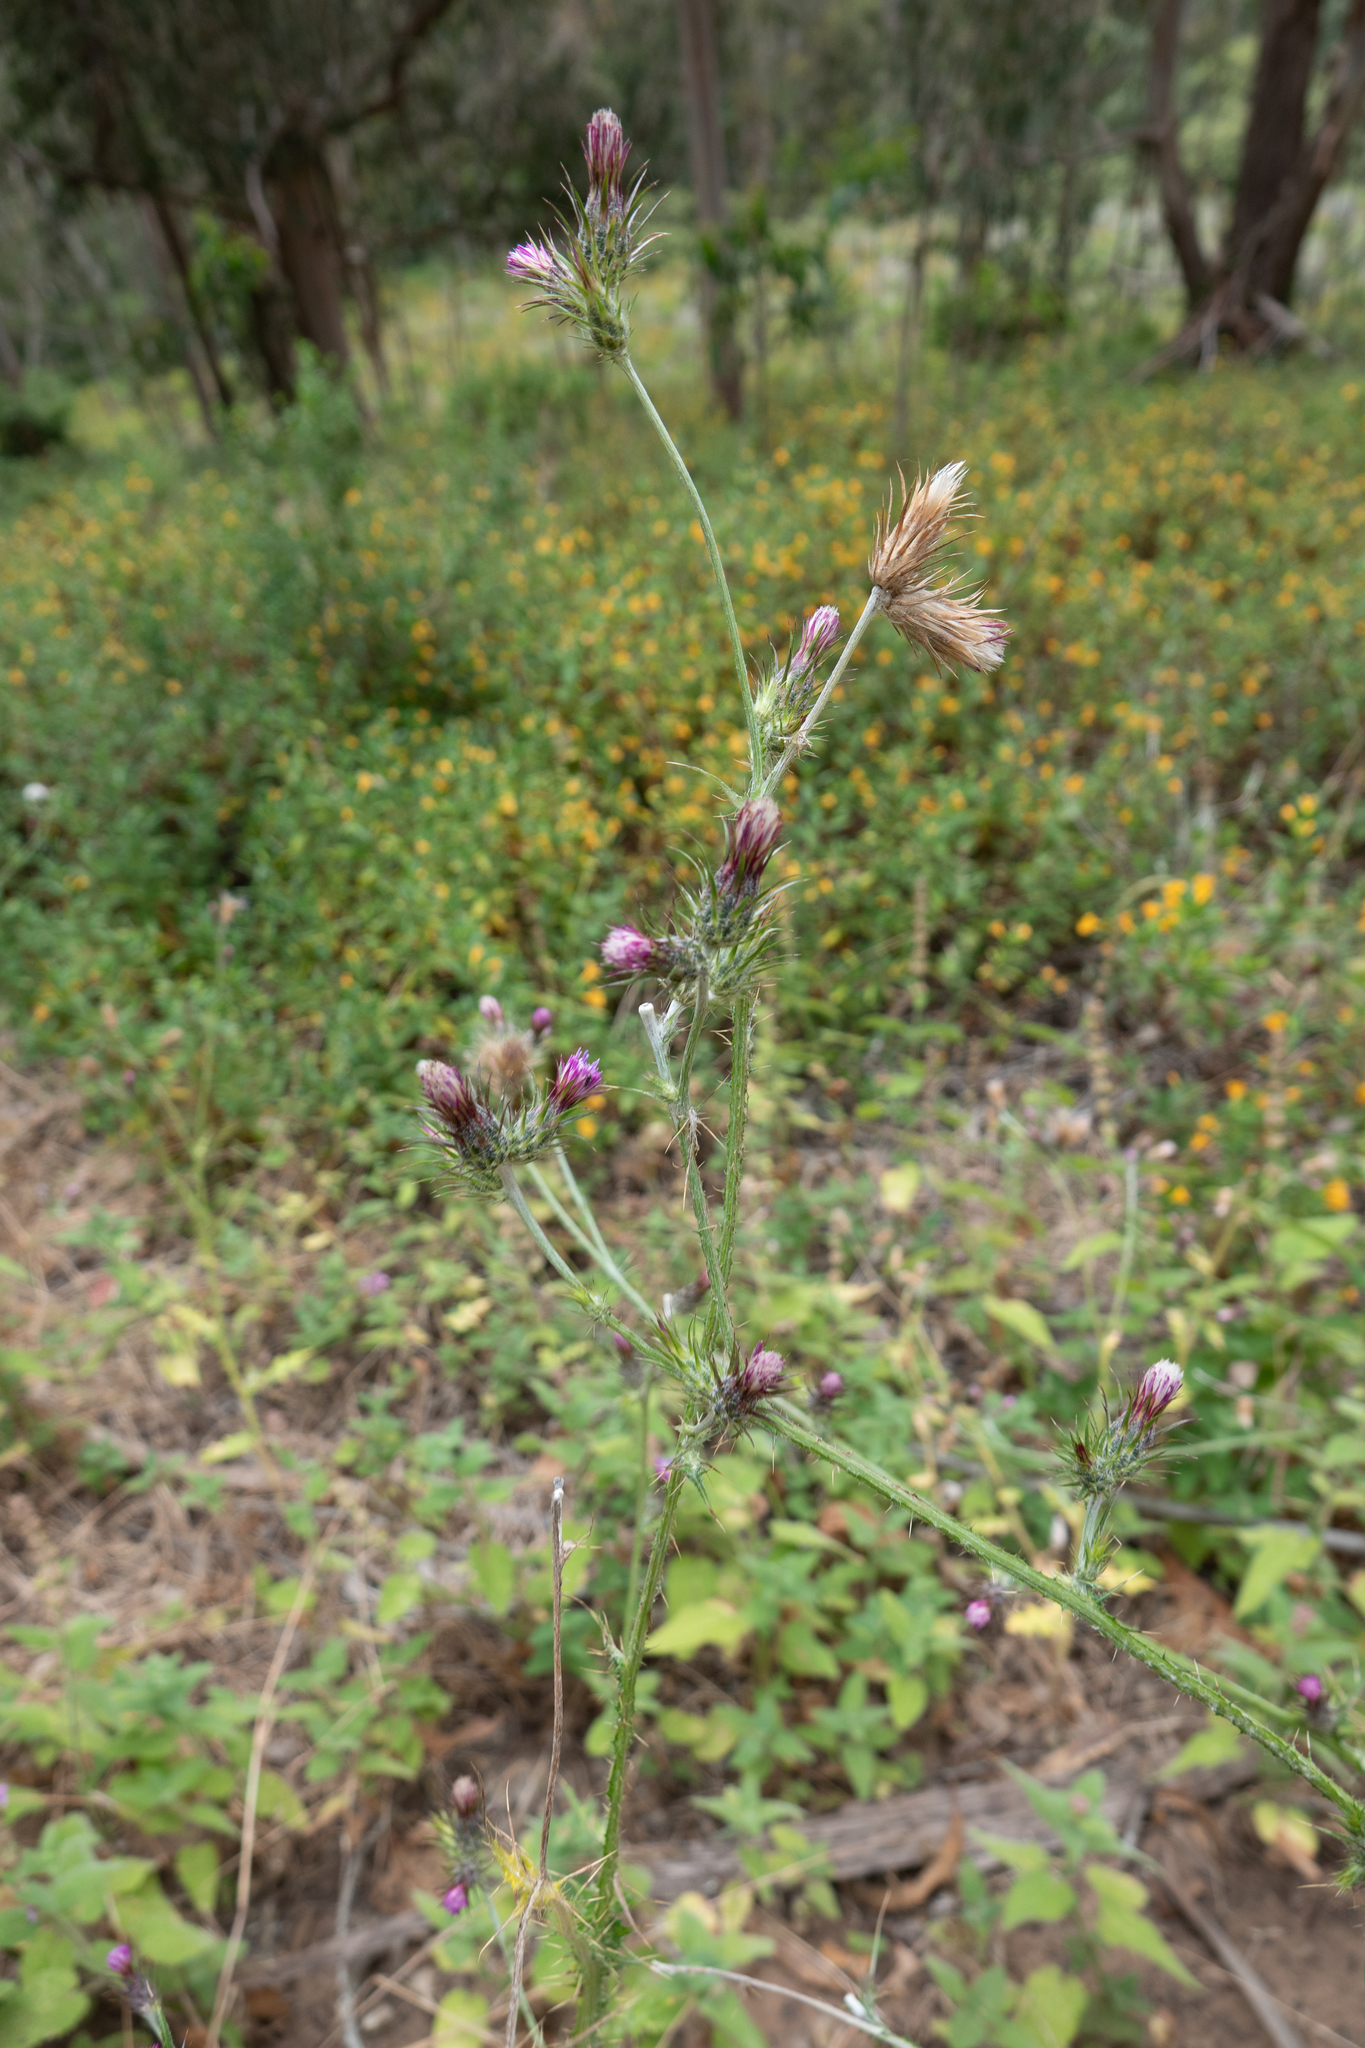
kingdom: Plantae
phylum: Tracheophyta
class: Magnoliopsida
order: Asterales
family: Asteraceae
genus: Carduus
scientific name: Carduus pycnocephalus
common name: Plymouth thistle
